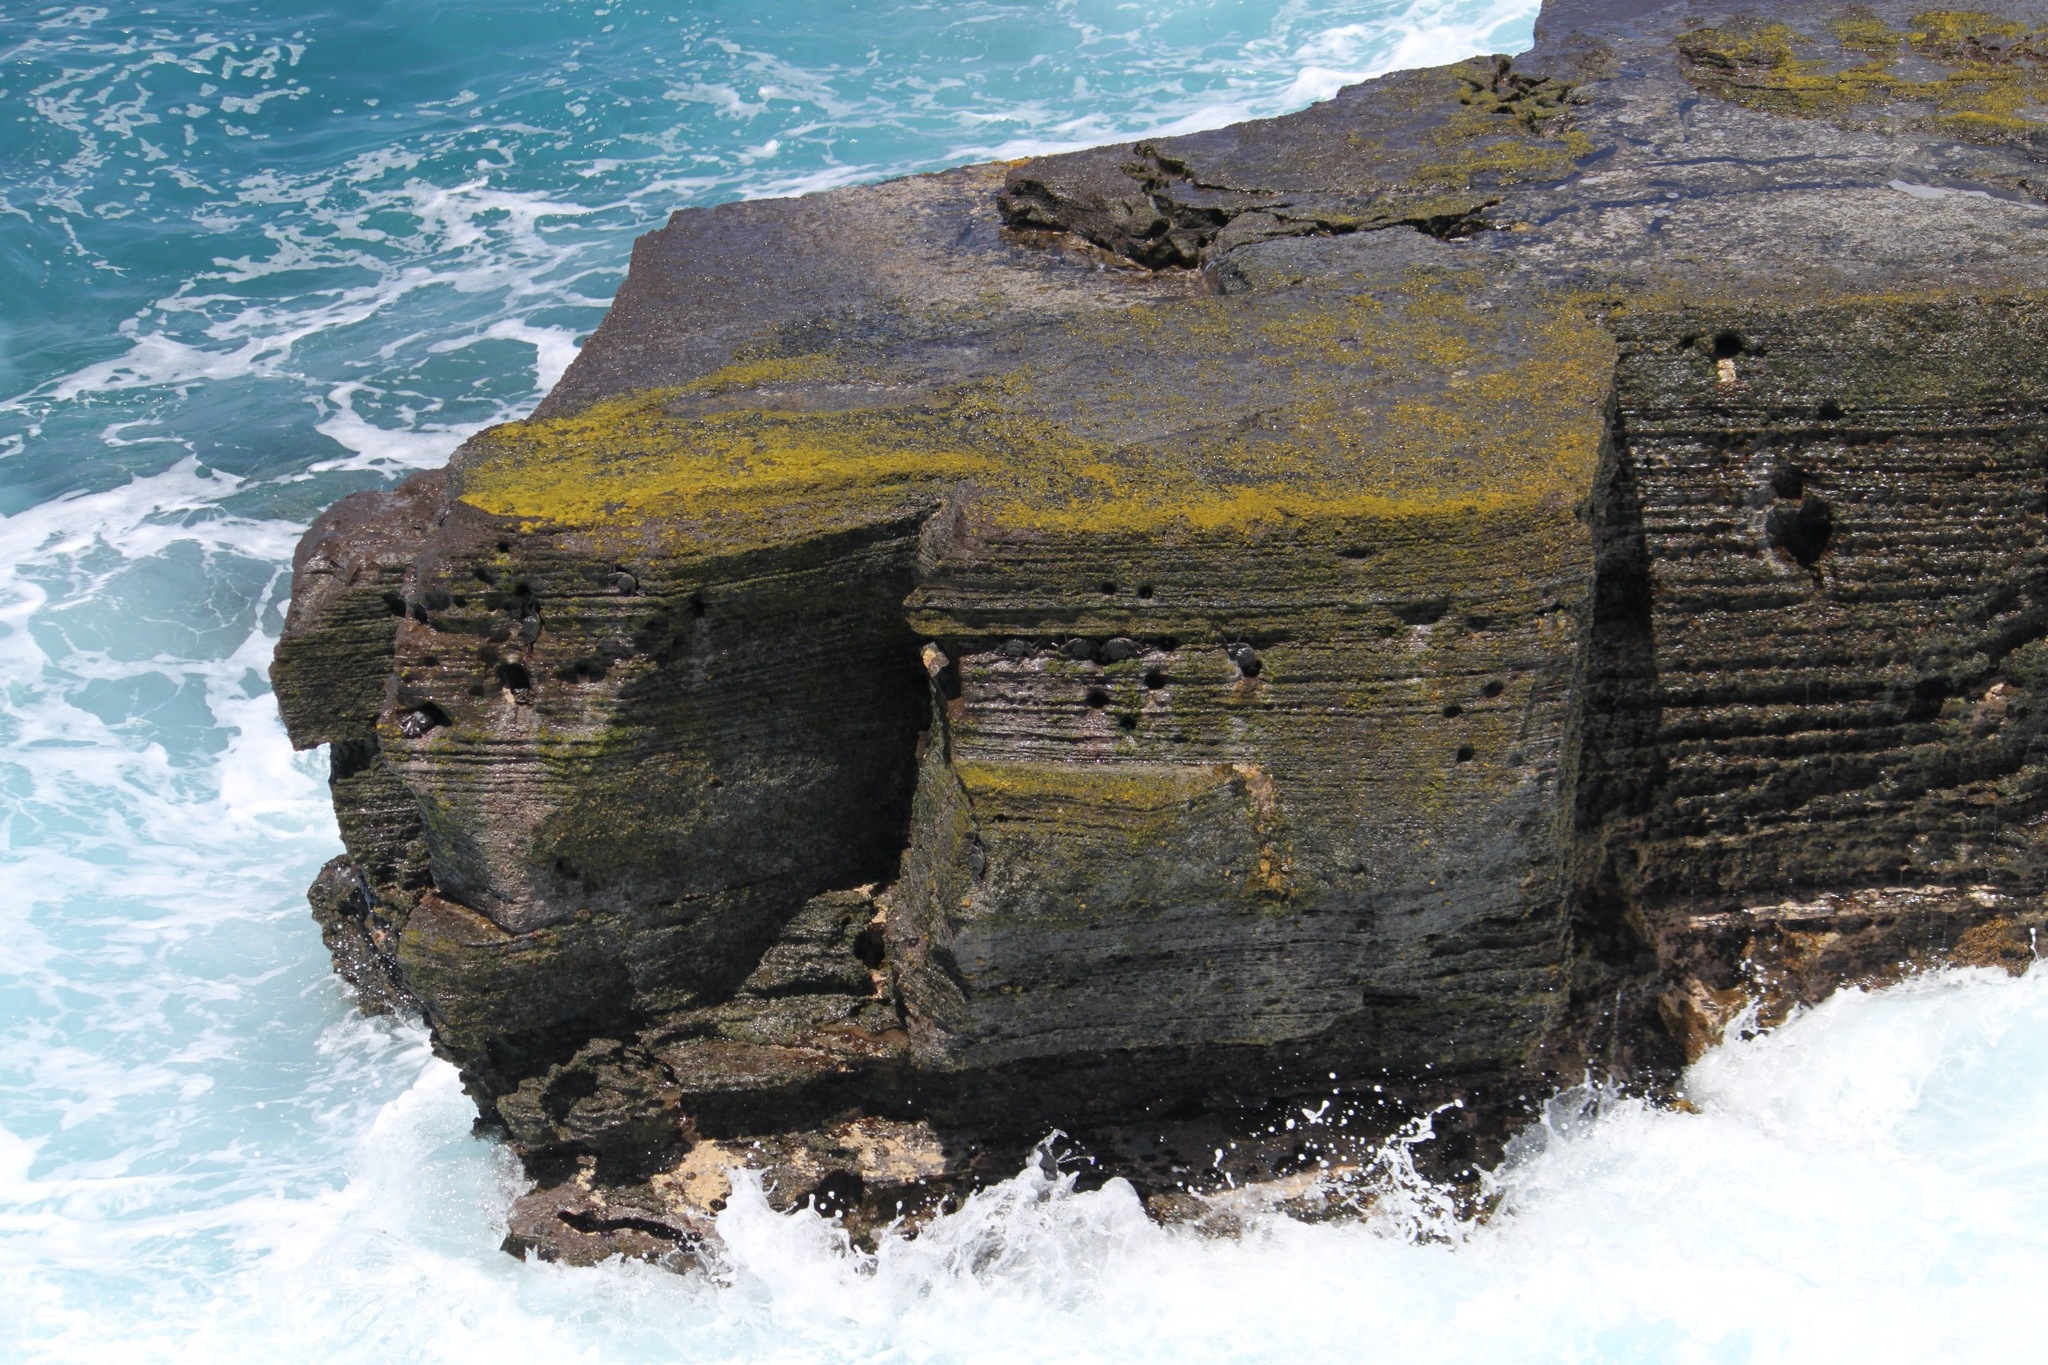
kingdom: Animalia
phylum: Arthropoda
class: Malacostraca
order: Decapoda
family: Grapsidae
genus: Grapsus
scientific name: Grapsus tenuicrustatus
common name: Natal lightfoot crab
